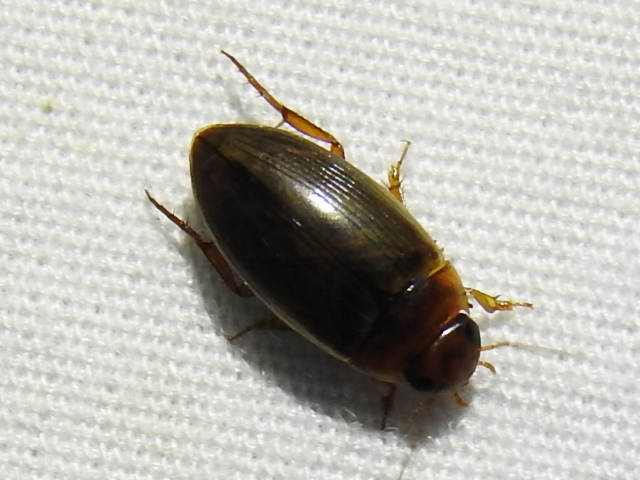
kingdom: Animalia
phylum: Arthropoda
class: Insecta
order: Coleoptera
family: Dytiscidae
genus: Copelatus
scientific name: Copelatus chevrolati
